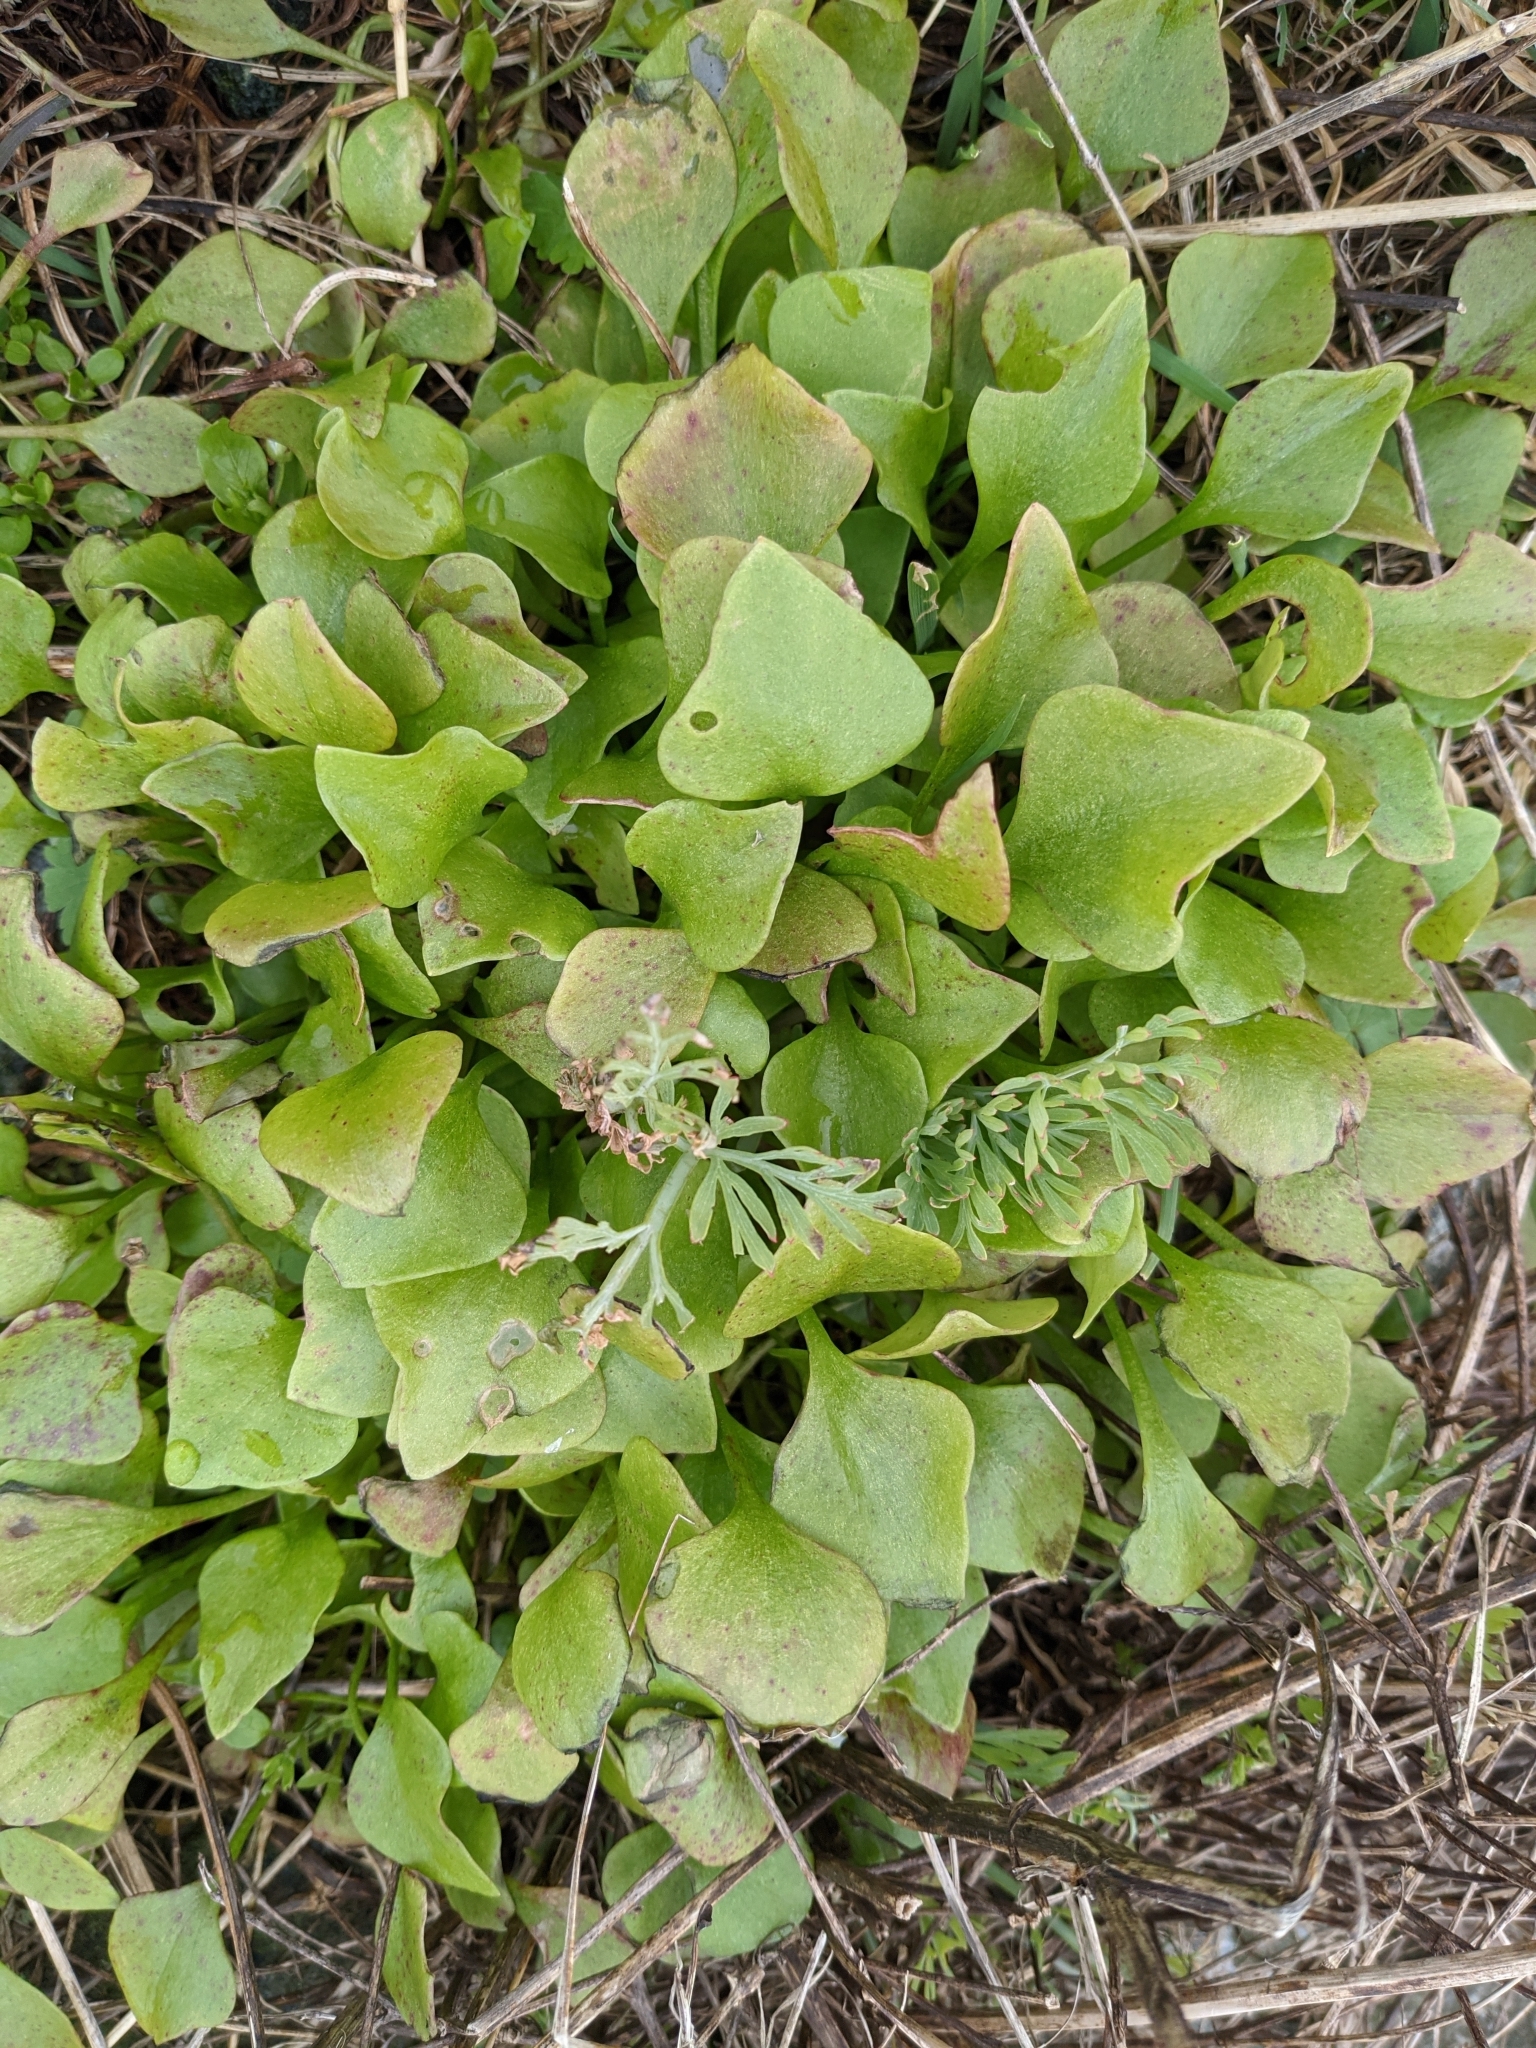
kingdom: Plantae
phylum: Tracheophyta
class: Magnoliopsida
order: Caryophyllales
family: Montiaceae
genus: Claytonia
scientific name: Claytonia perfoliata
